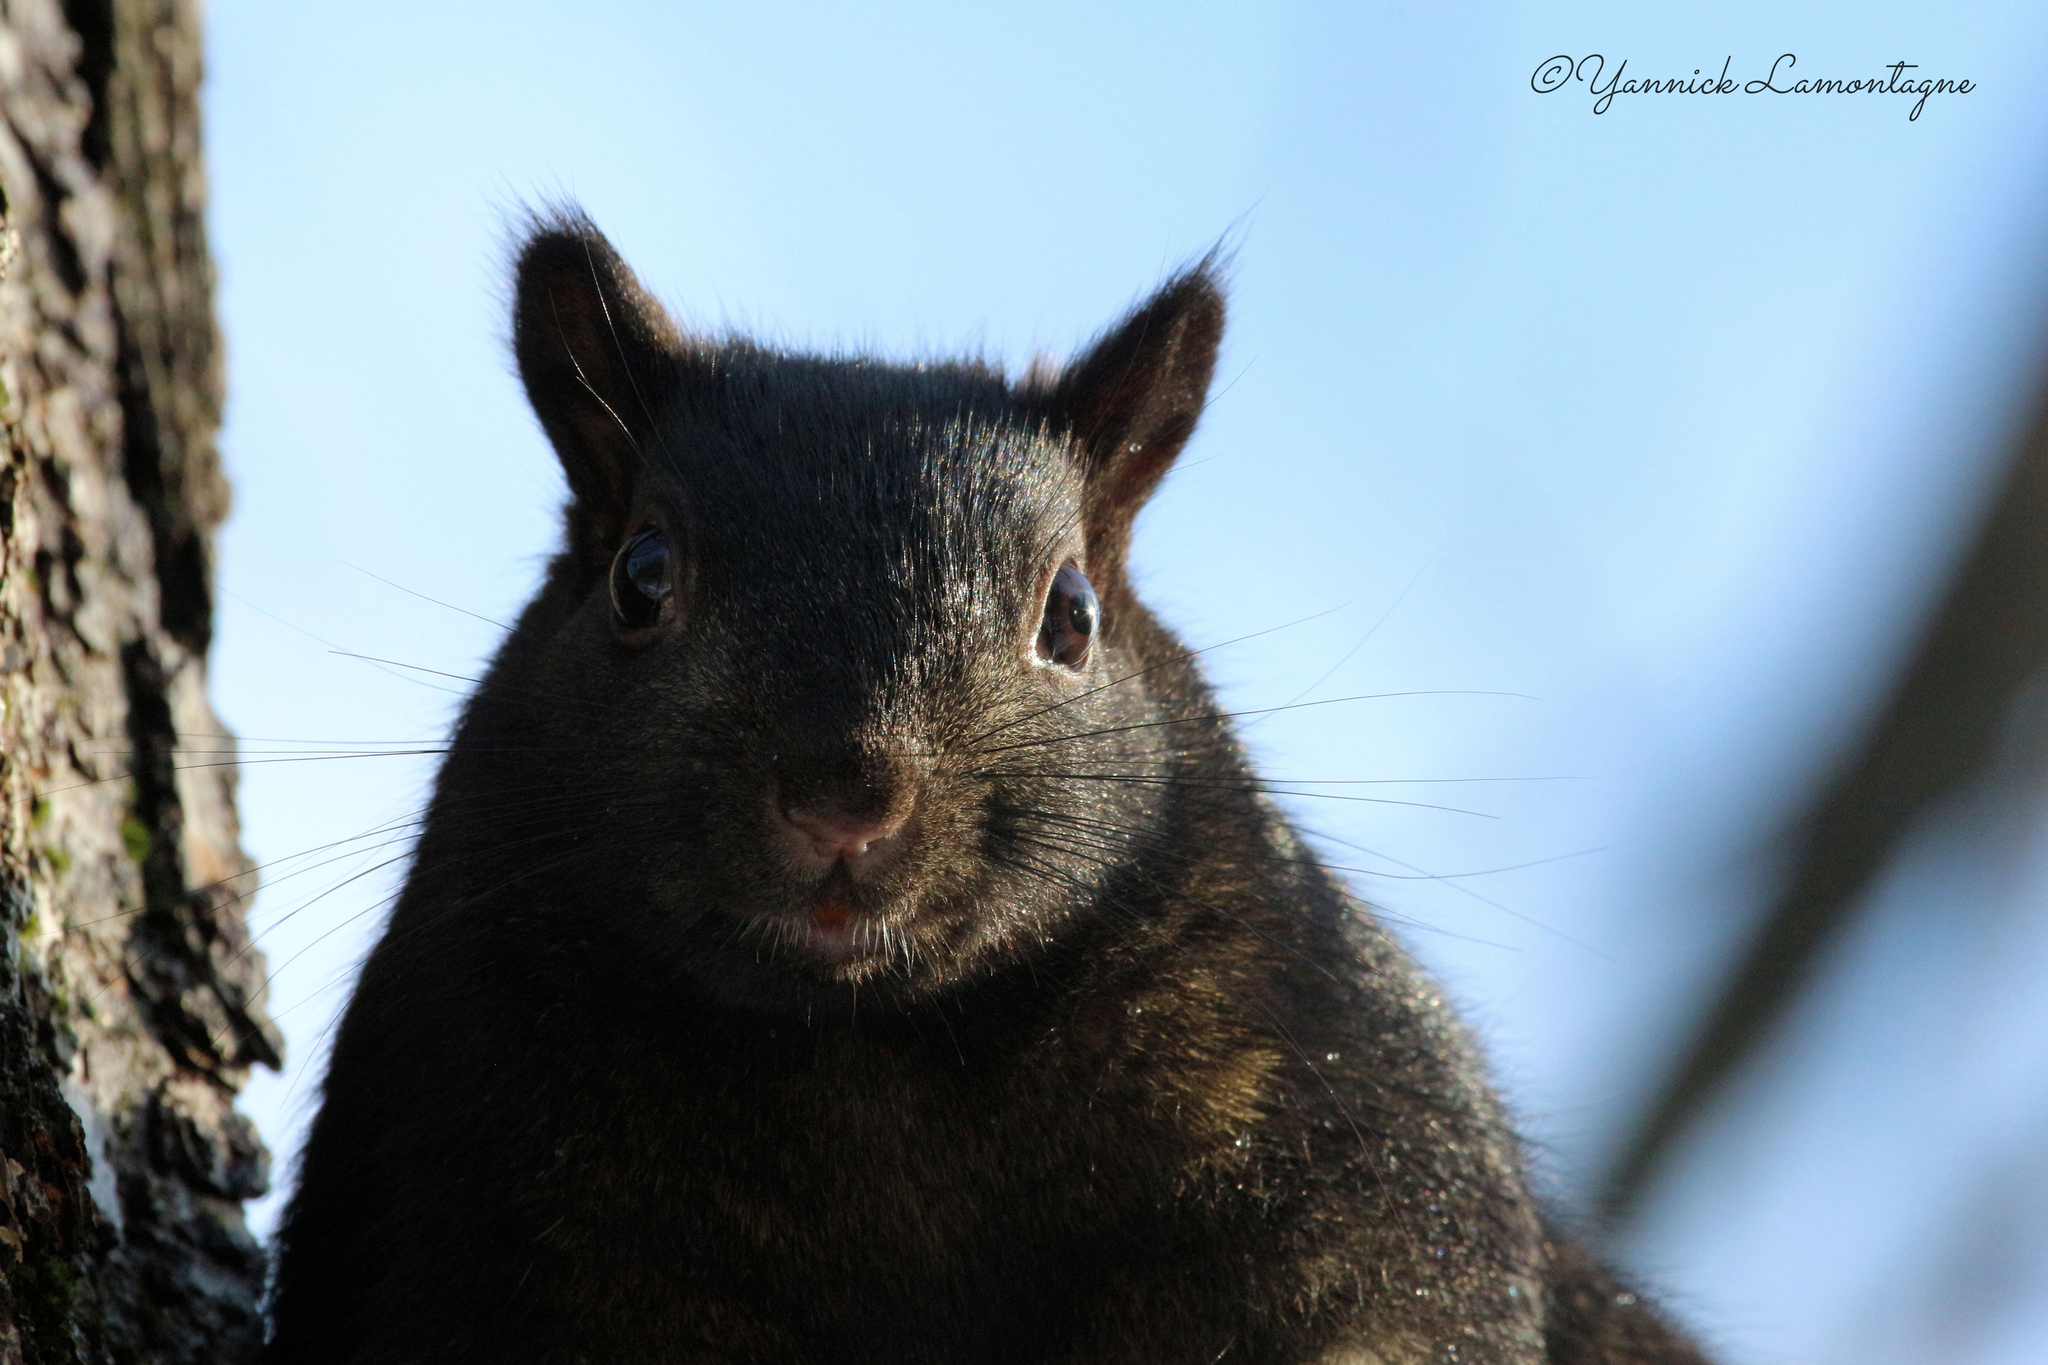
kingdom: Animalia
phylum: Chordata
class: Mammalia
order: Rodentia
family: Sciuridae
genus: Sciurus
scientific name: Sciurus carolinensis
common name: Eastern gray squirrel
